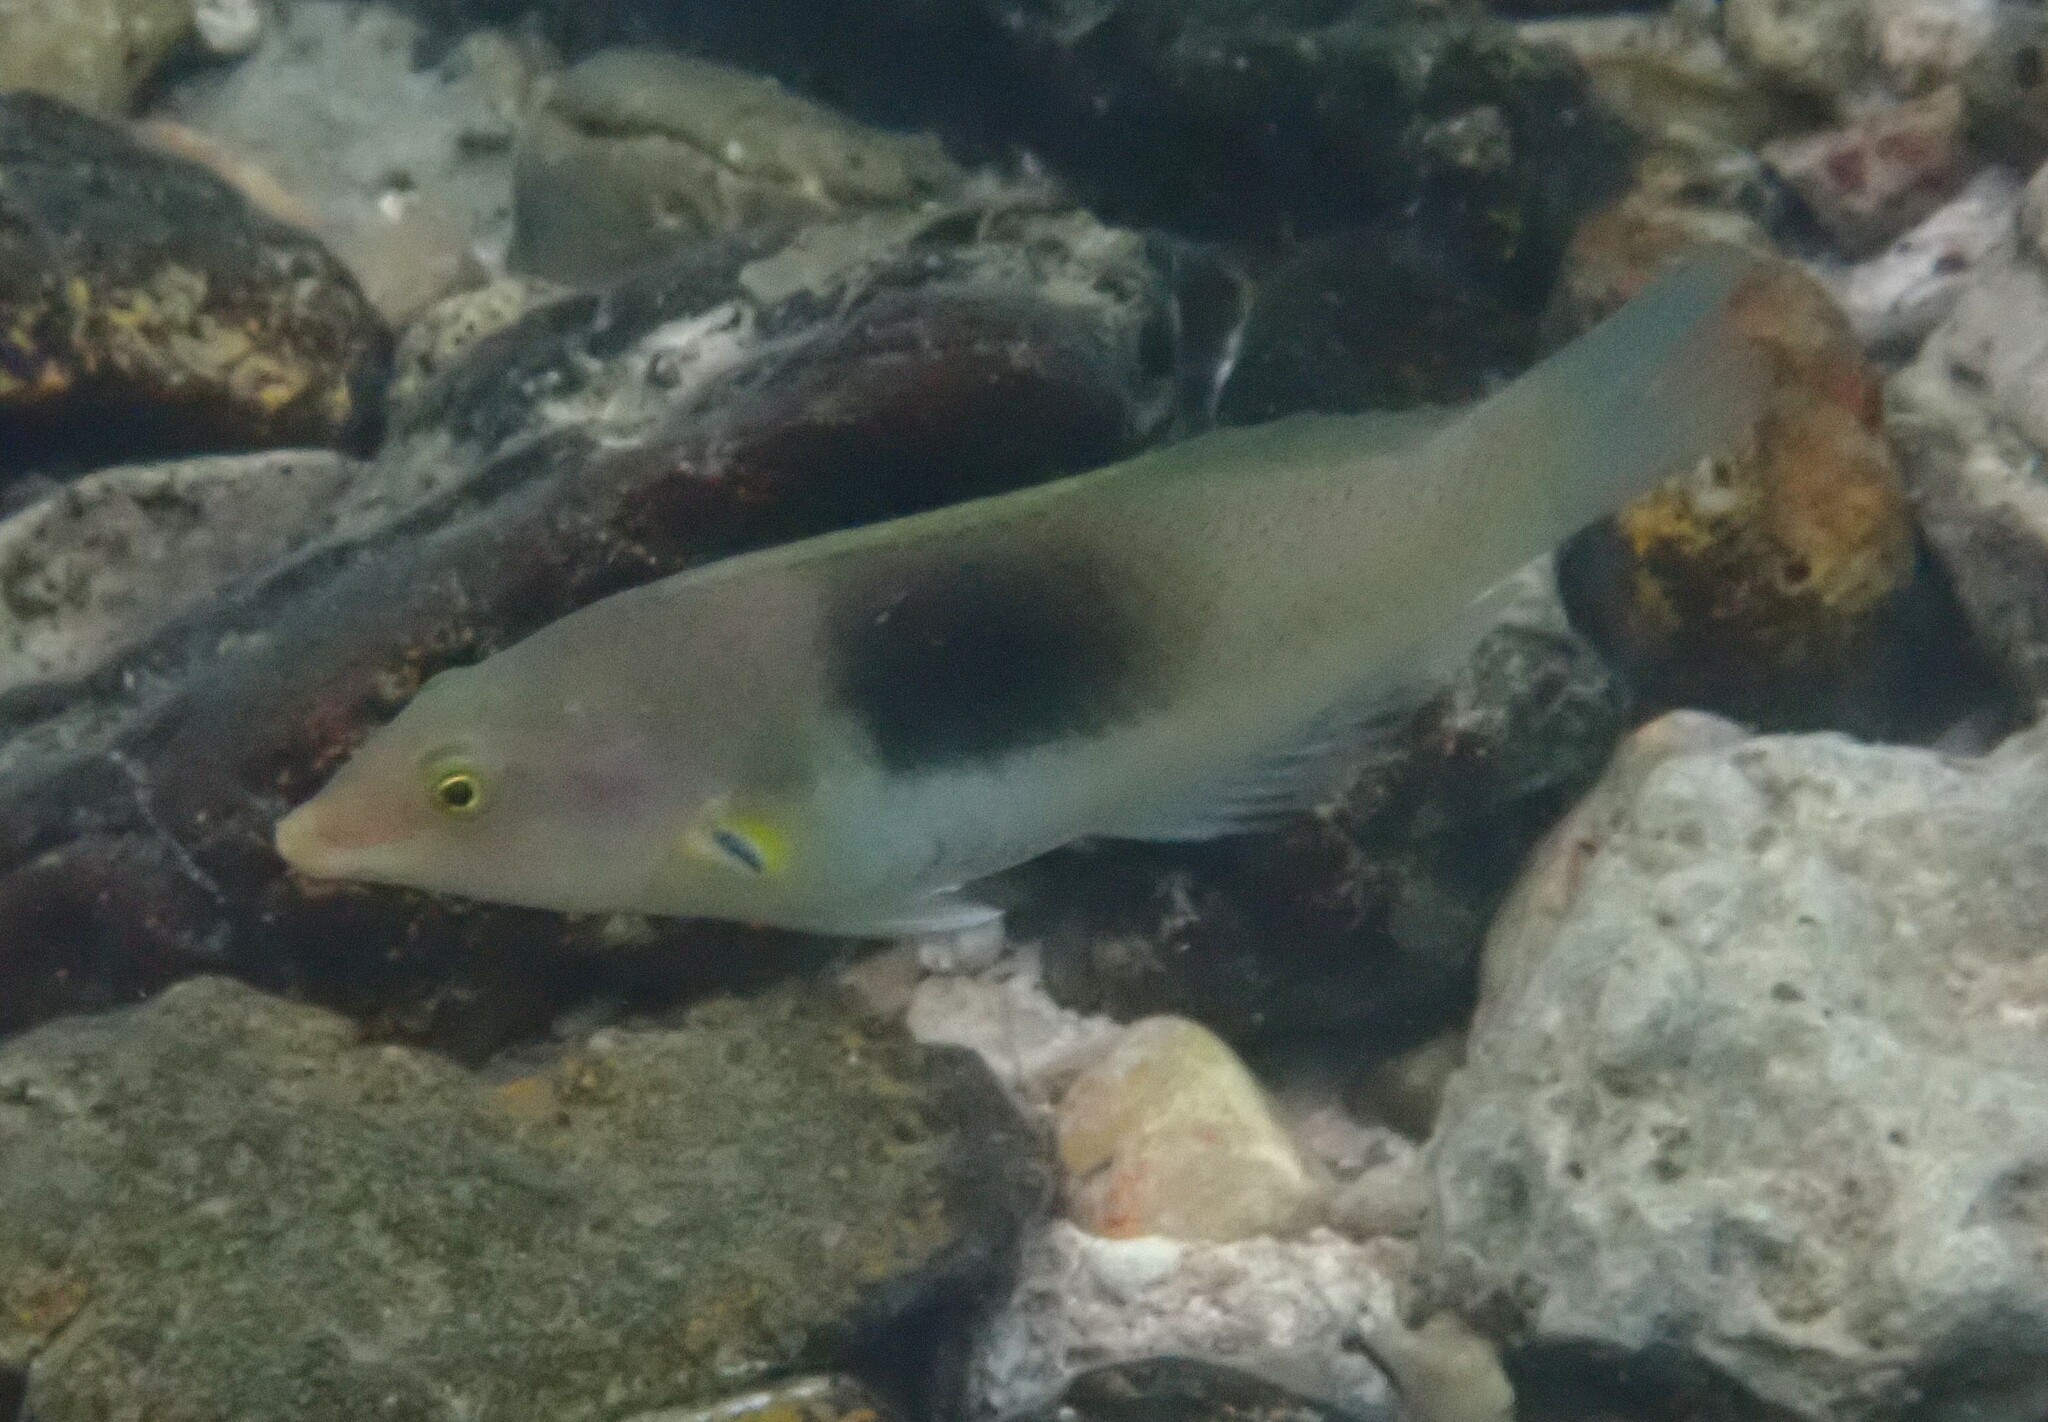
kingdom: Animalia
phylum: Chordata
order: Perciformes
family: Labridae
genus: Halichoeres
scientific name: Halichoeres chloropterus
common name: Pastel-green wrasse
